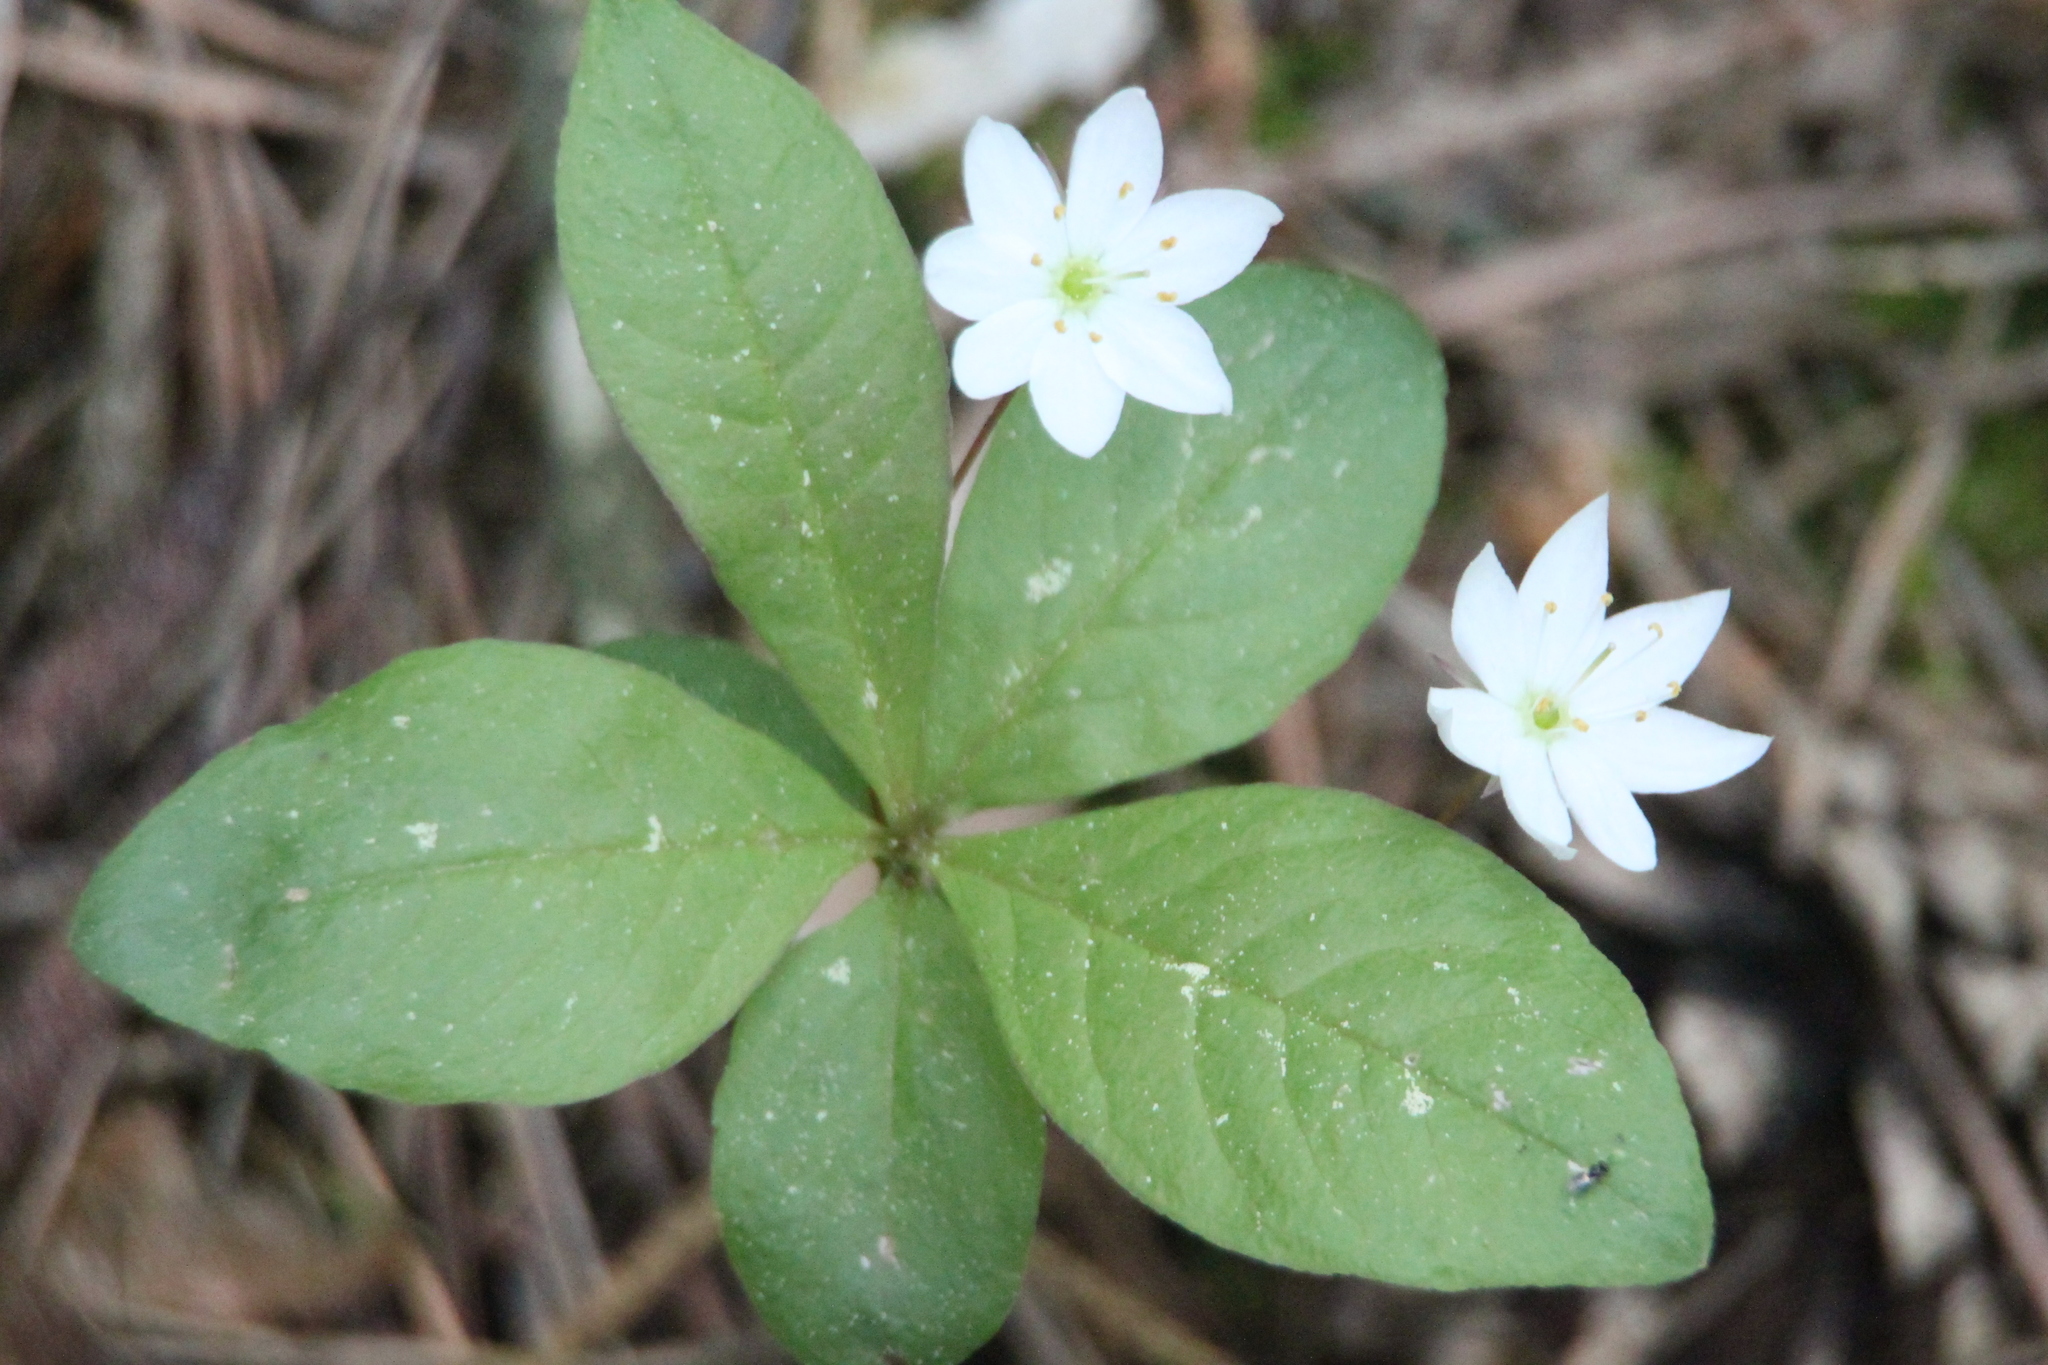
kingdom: Plantae
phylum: Tracheophyta
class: Magnoliopsida
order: Ericales
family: Primulaceae
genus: Lysimachia
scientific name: Lysimachia europaea
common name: Arctic starflower
